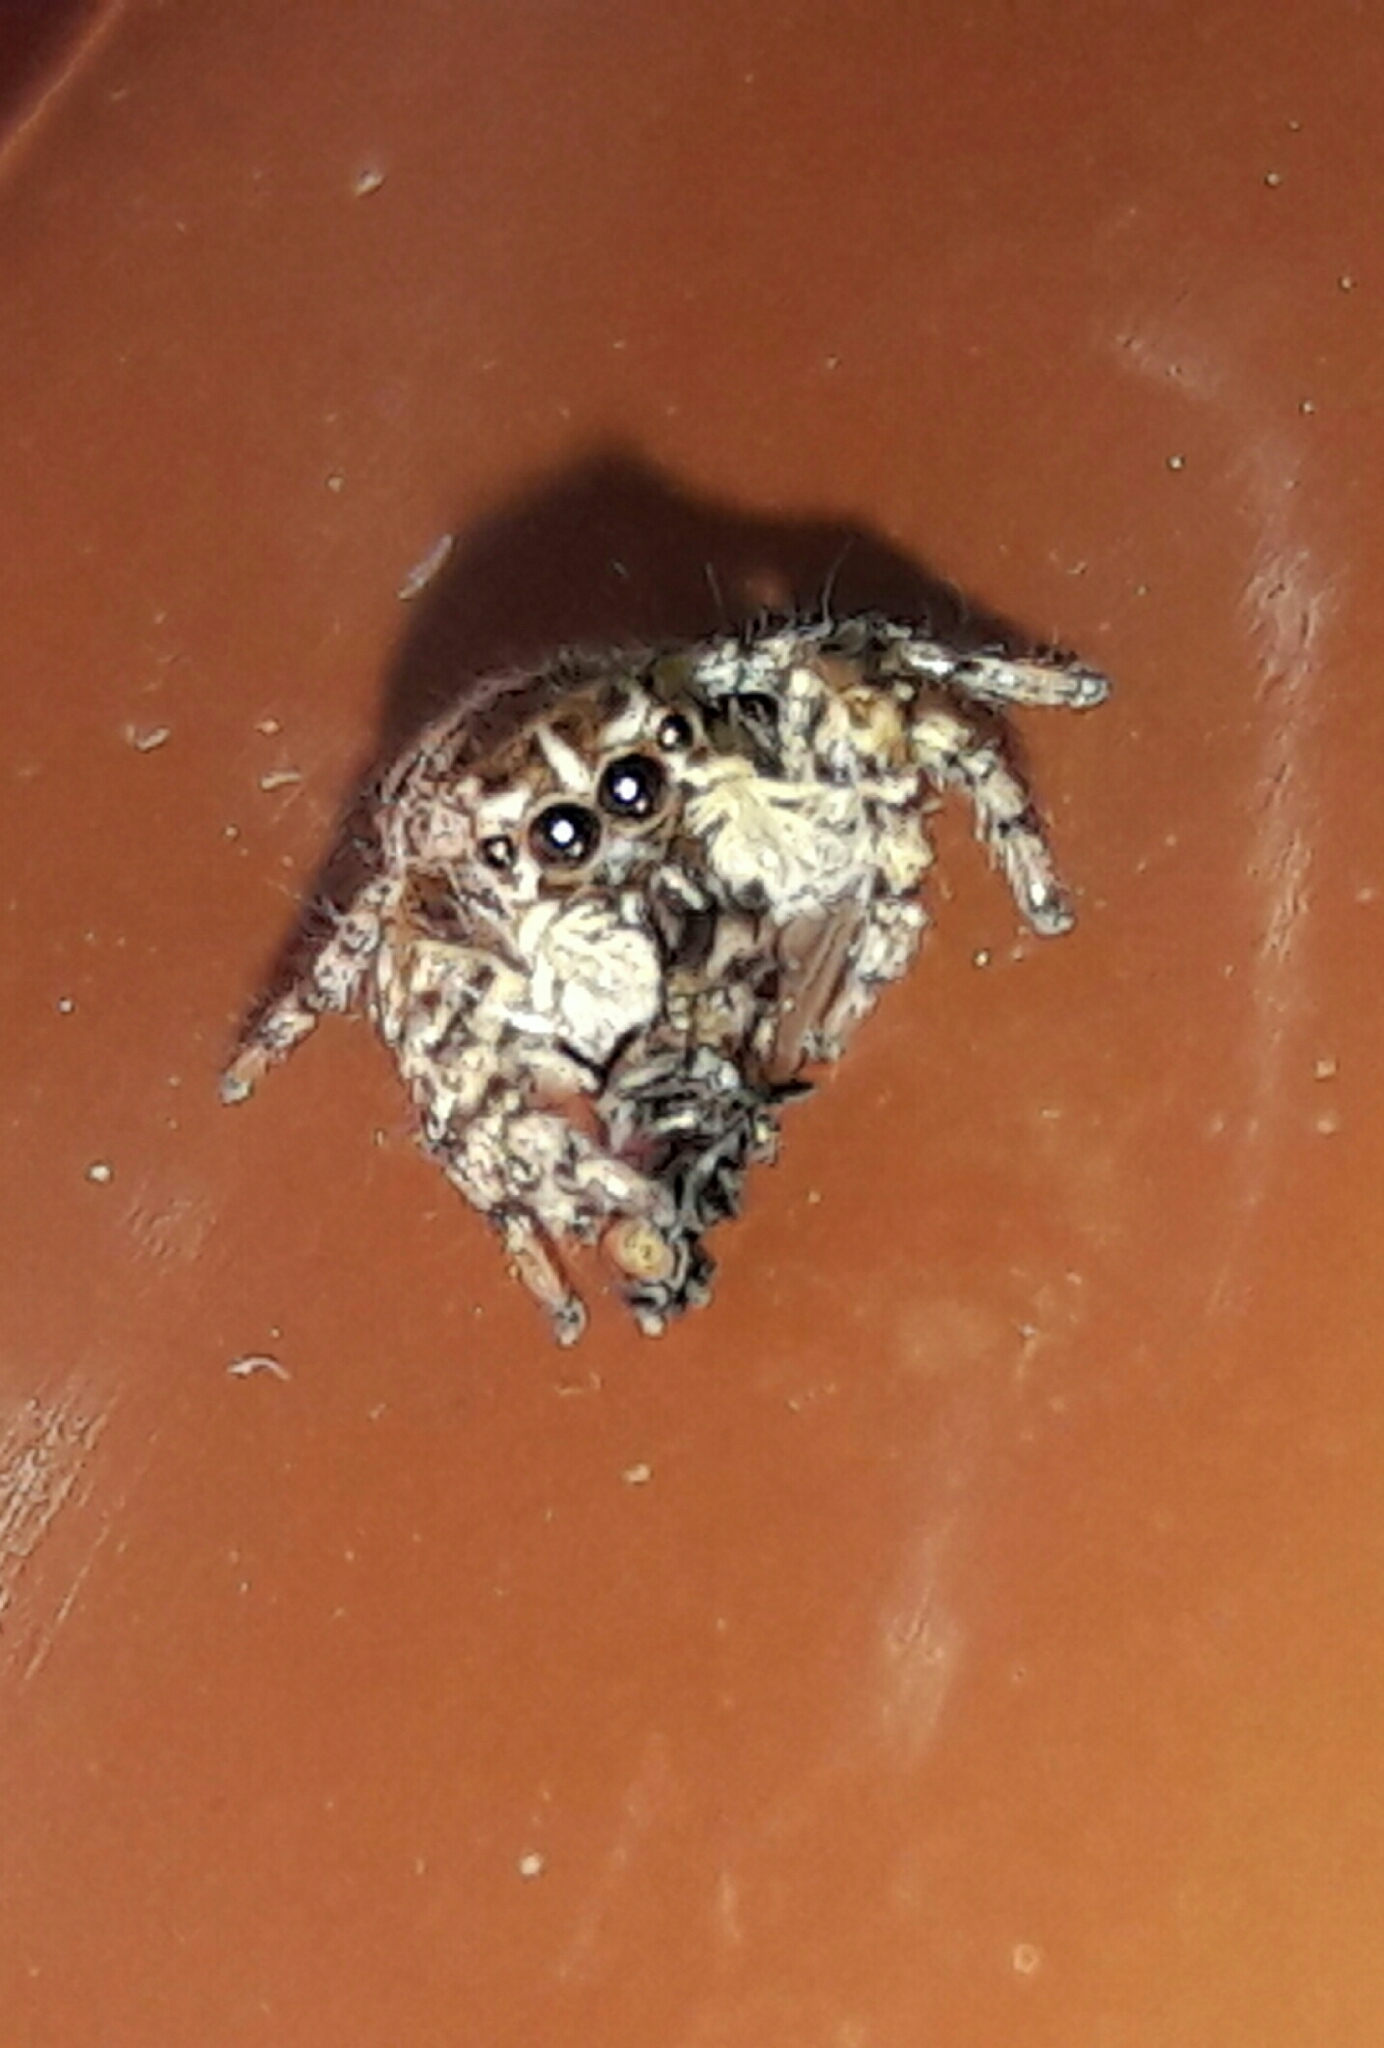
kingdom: Animalia
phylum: Arthropoda
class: Arachnida
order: Araneae
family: Salticidae
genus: Sumampattus
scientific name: Sumampattus quinqueradiatus
